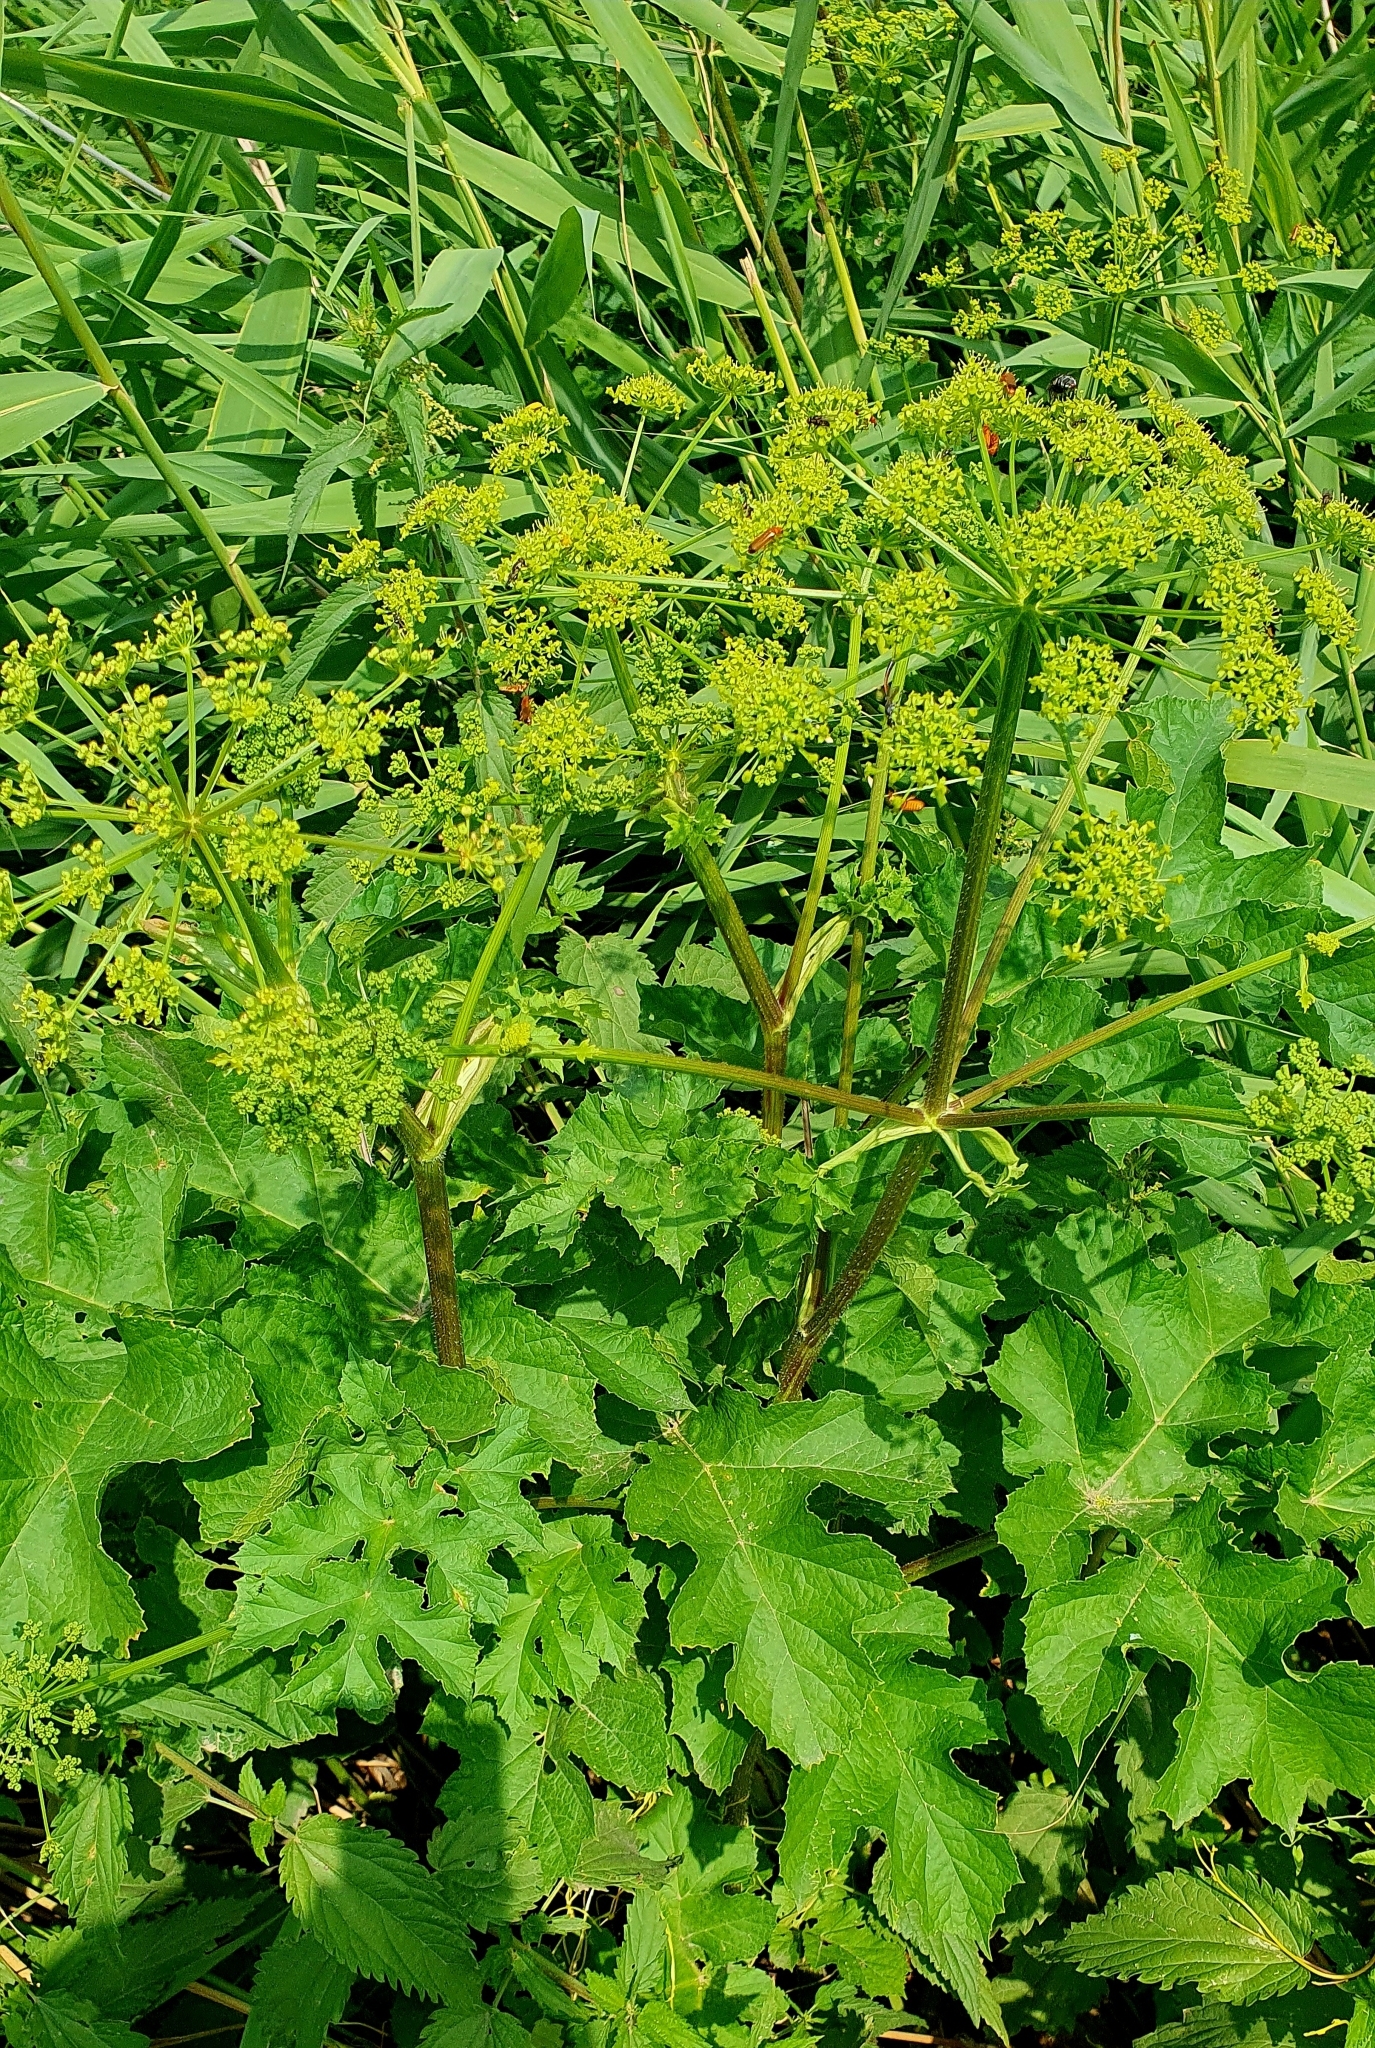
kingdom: Plantae
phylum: Tracheophyta
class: Magnoliopsida
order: Apiales
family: Apiaceae
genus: Heracleum
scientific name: Heracleum sphondylium
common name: Hogweed
